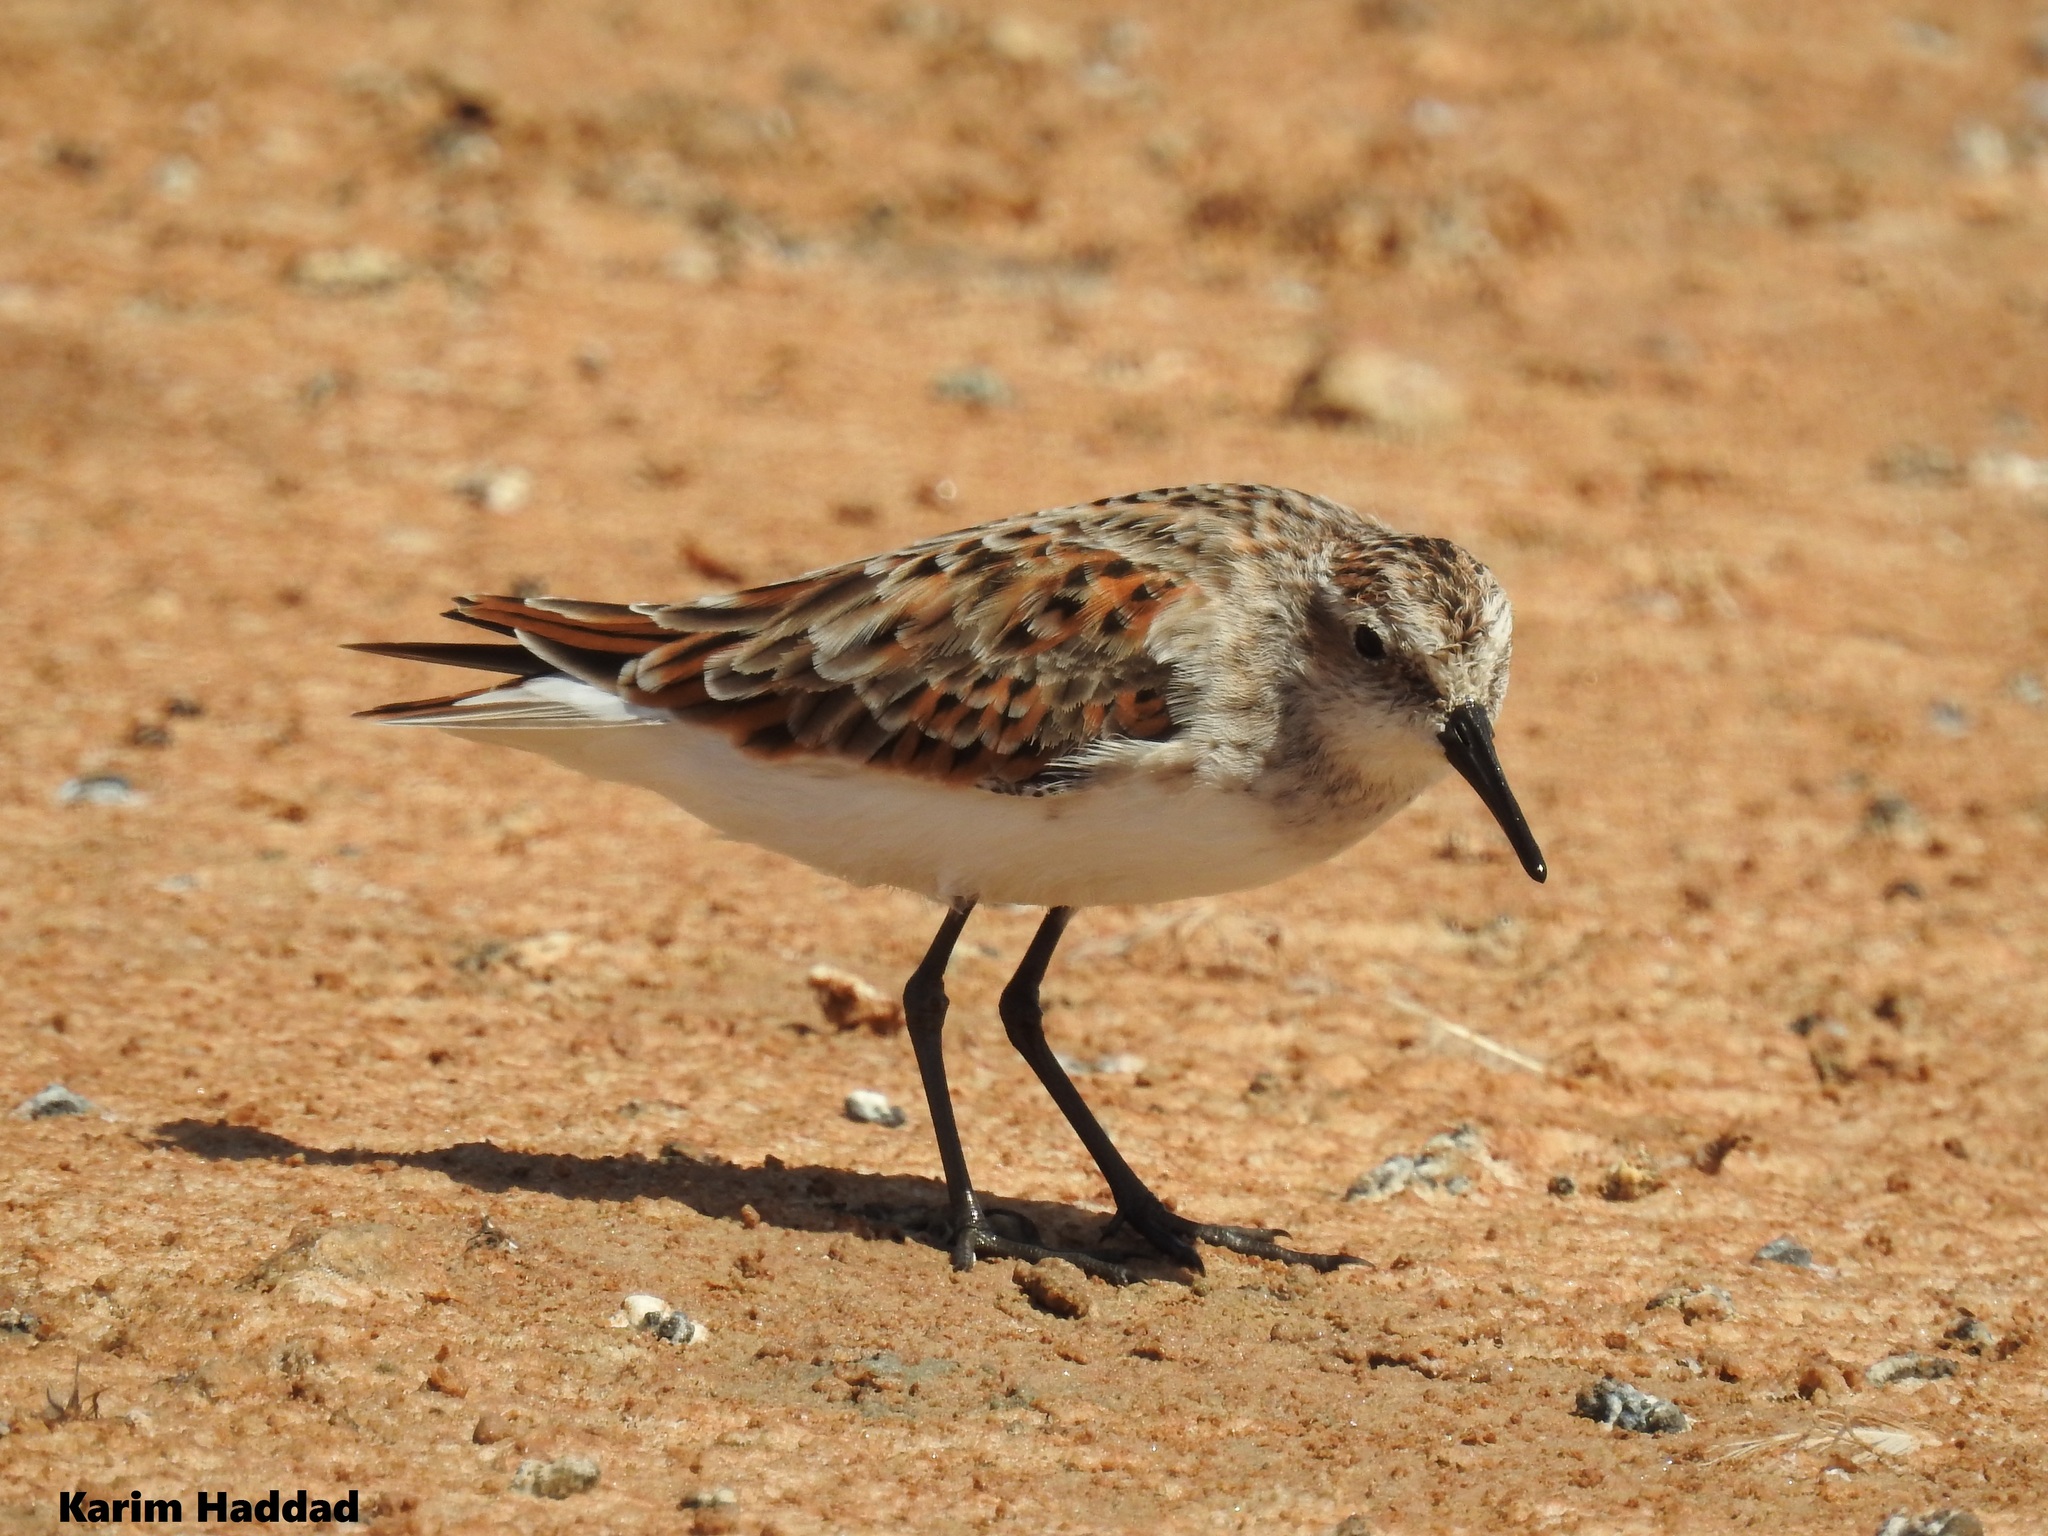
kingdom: Animalia
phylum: Chordata
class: Aves
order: Charadriiformes
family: Scolopacidae
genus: Calidris
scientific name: Calidris minuta
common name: Little stint
